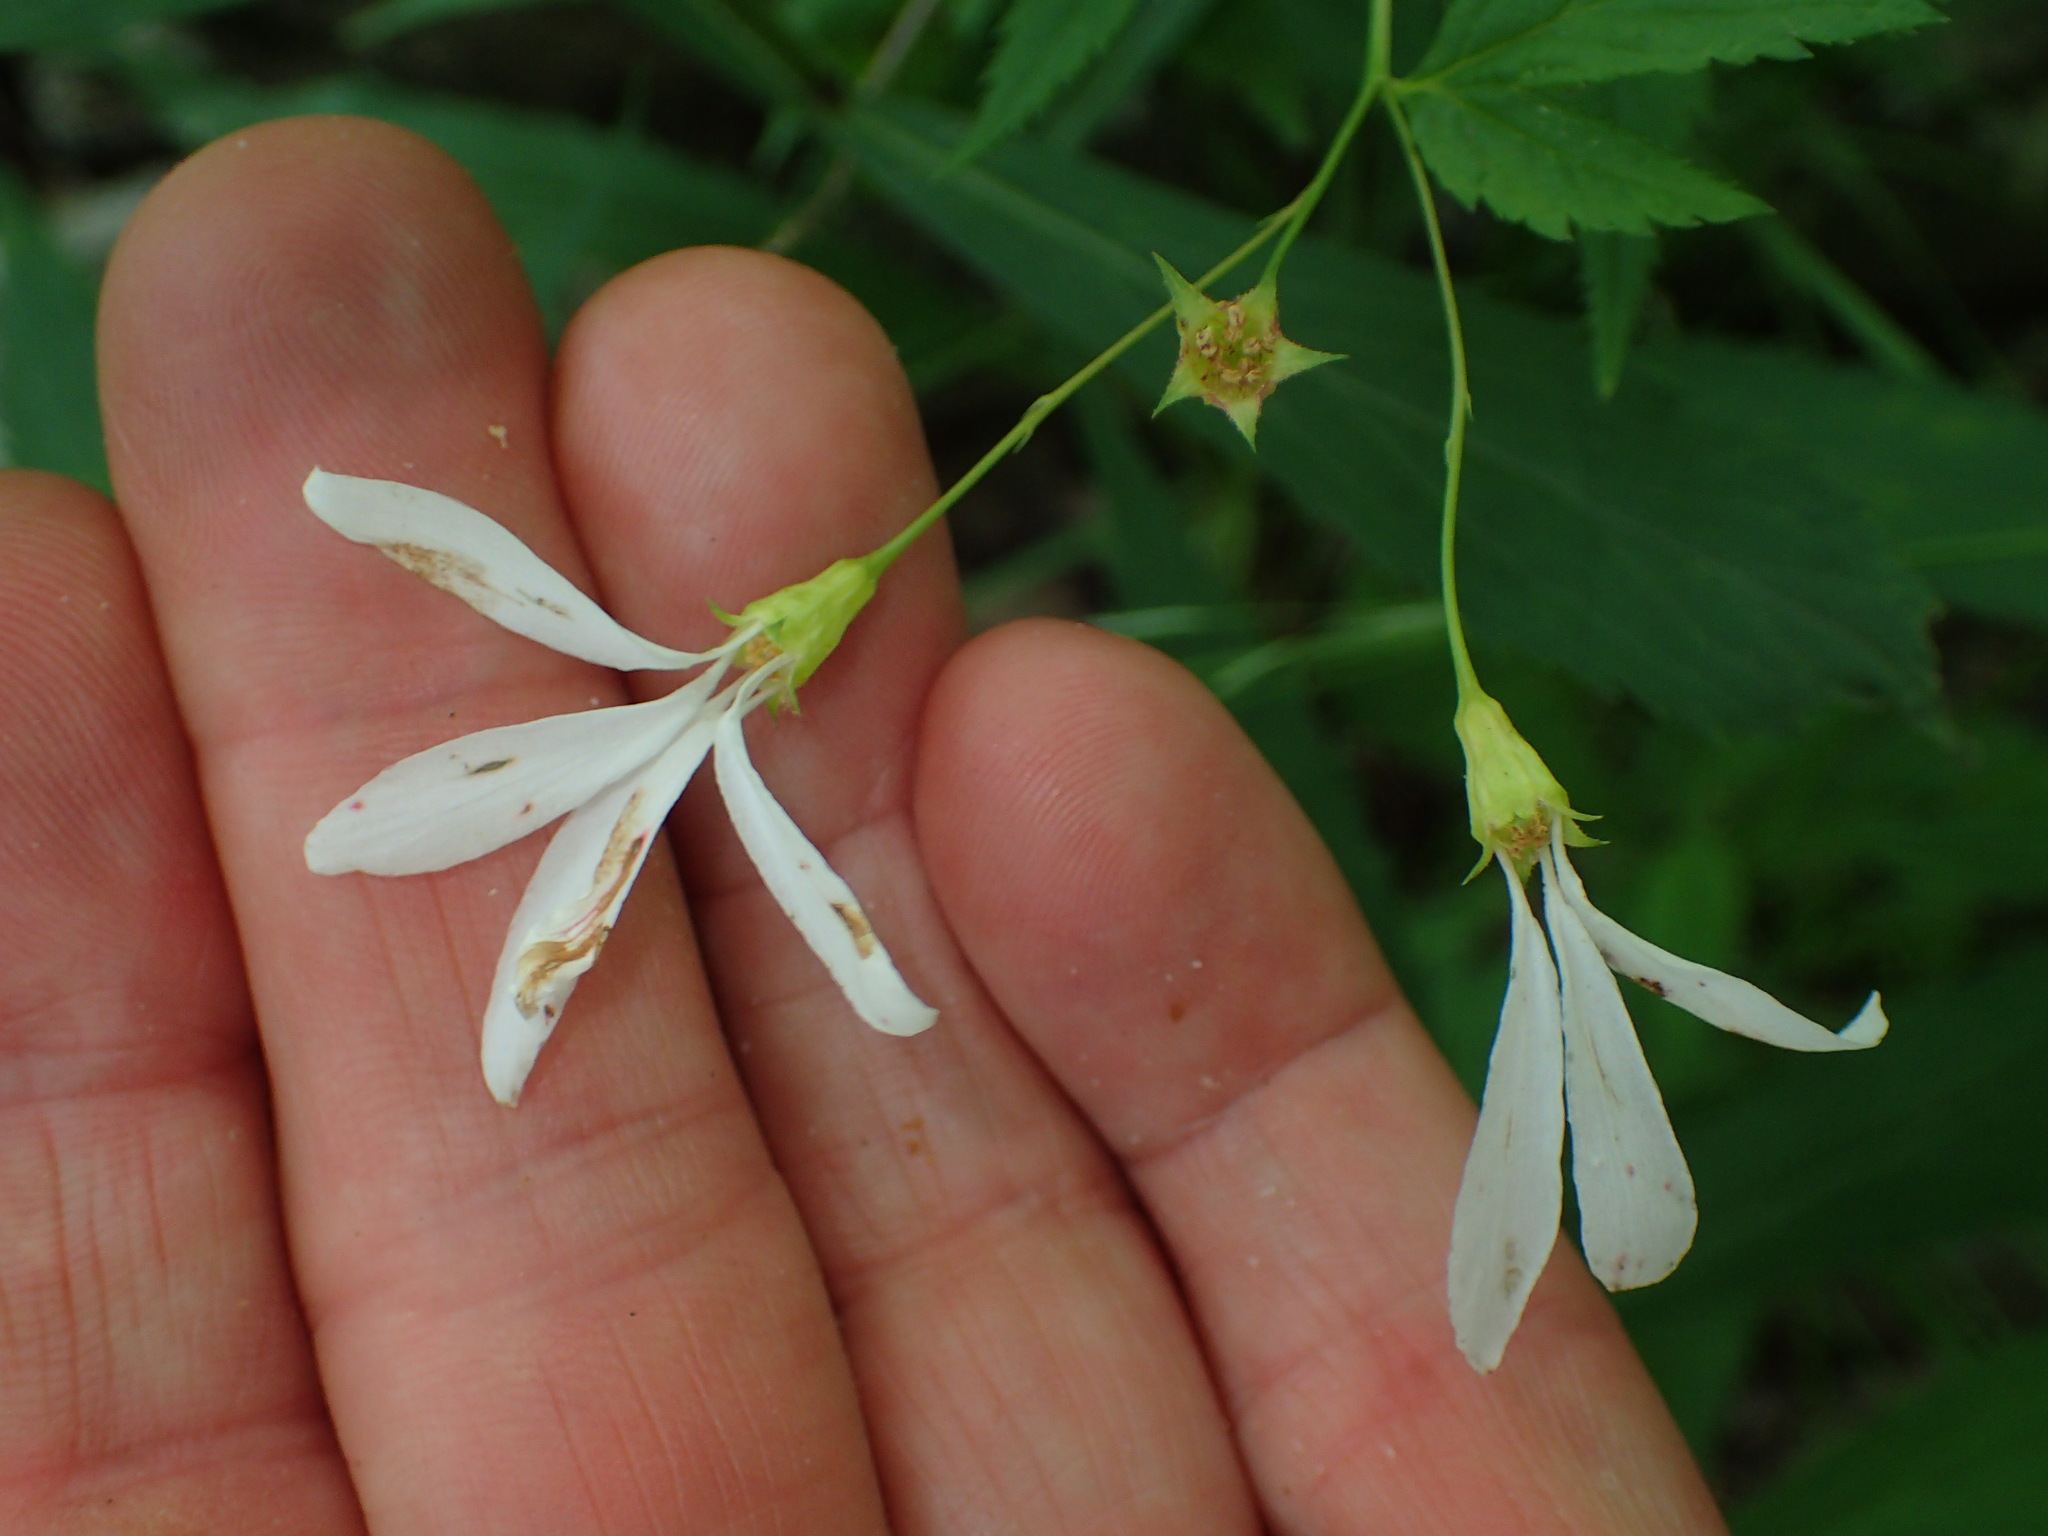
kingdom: Plantae
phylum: Tracheophyta
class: Magnoliopsida
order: Rosales
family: Rosaceae
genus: Gillenia
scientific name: Gillenia trifoliata
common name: Bowman's-root
